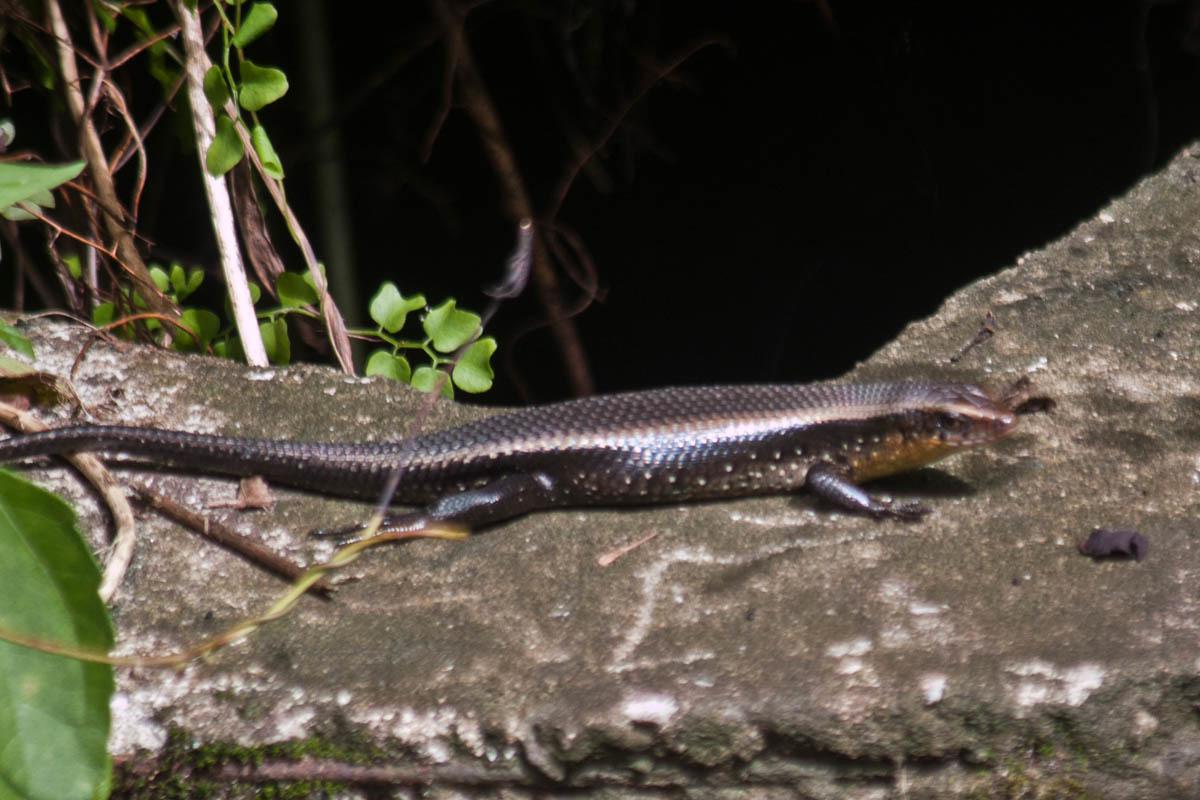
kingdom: Animalia
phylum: Chordata
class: Squamata
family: Scincidae
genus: Eutropis
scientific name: Eutropis multifasciata
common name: Common mabuya
